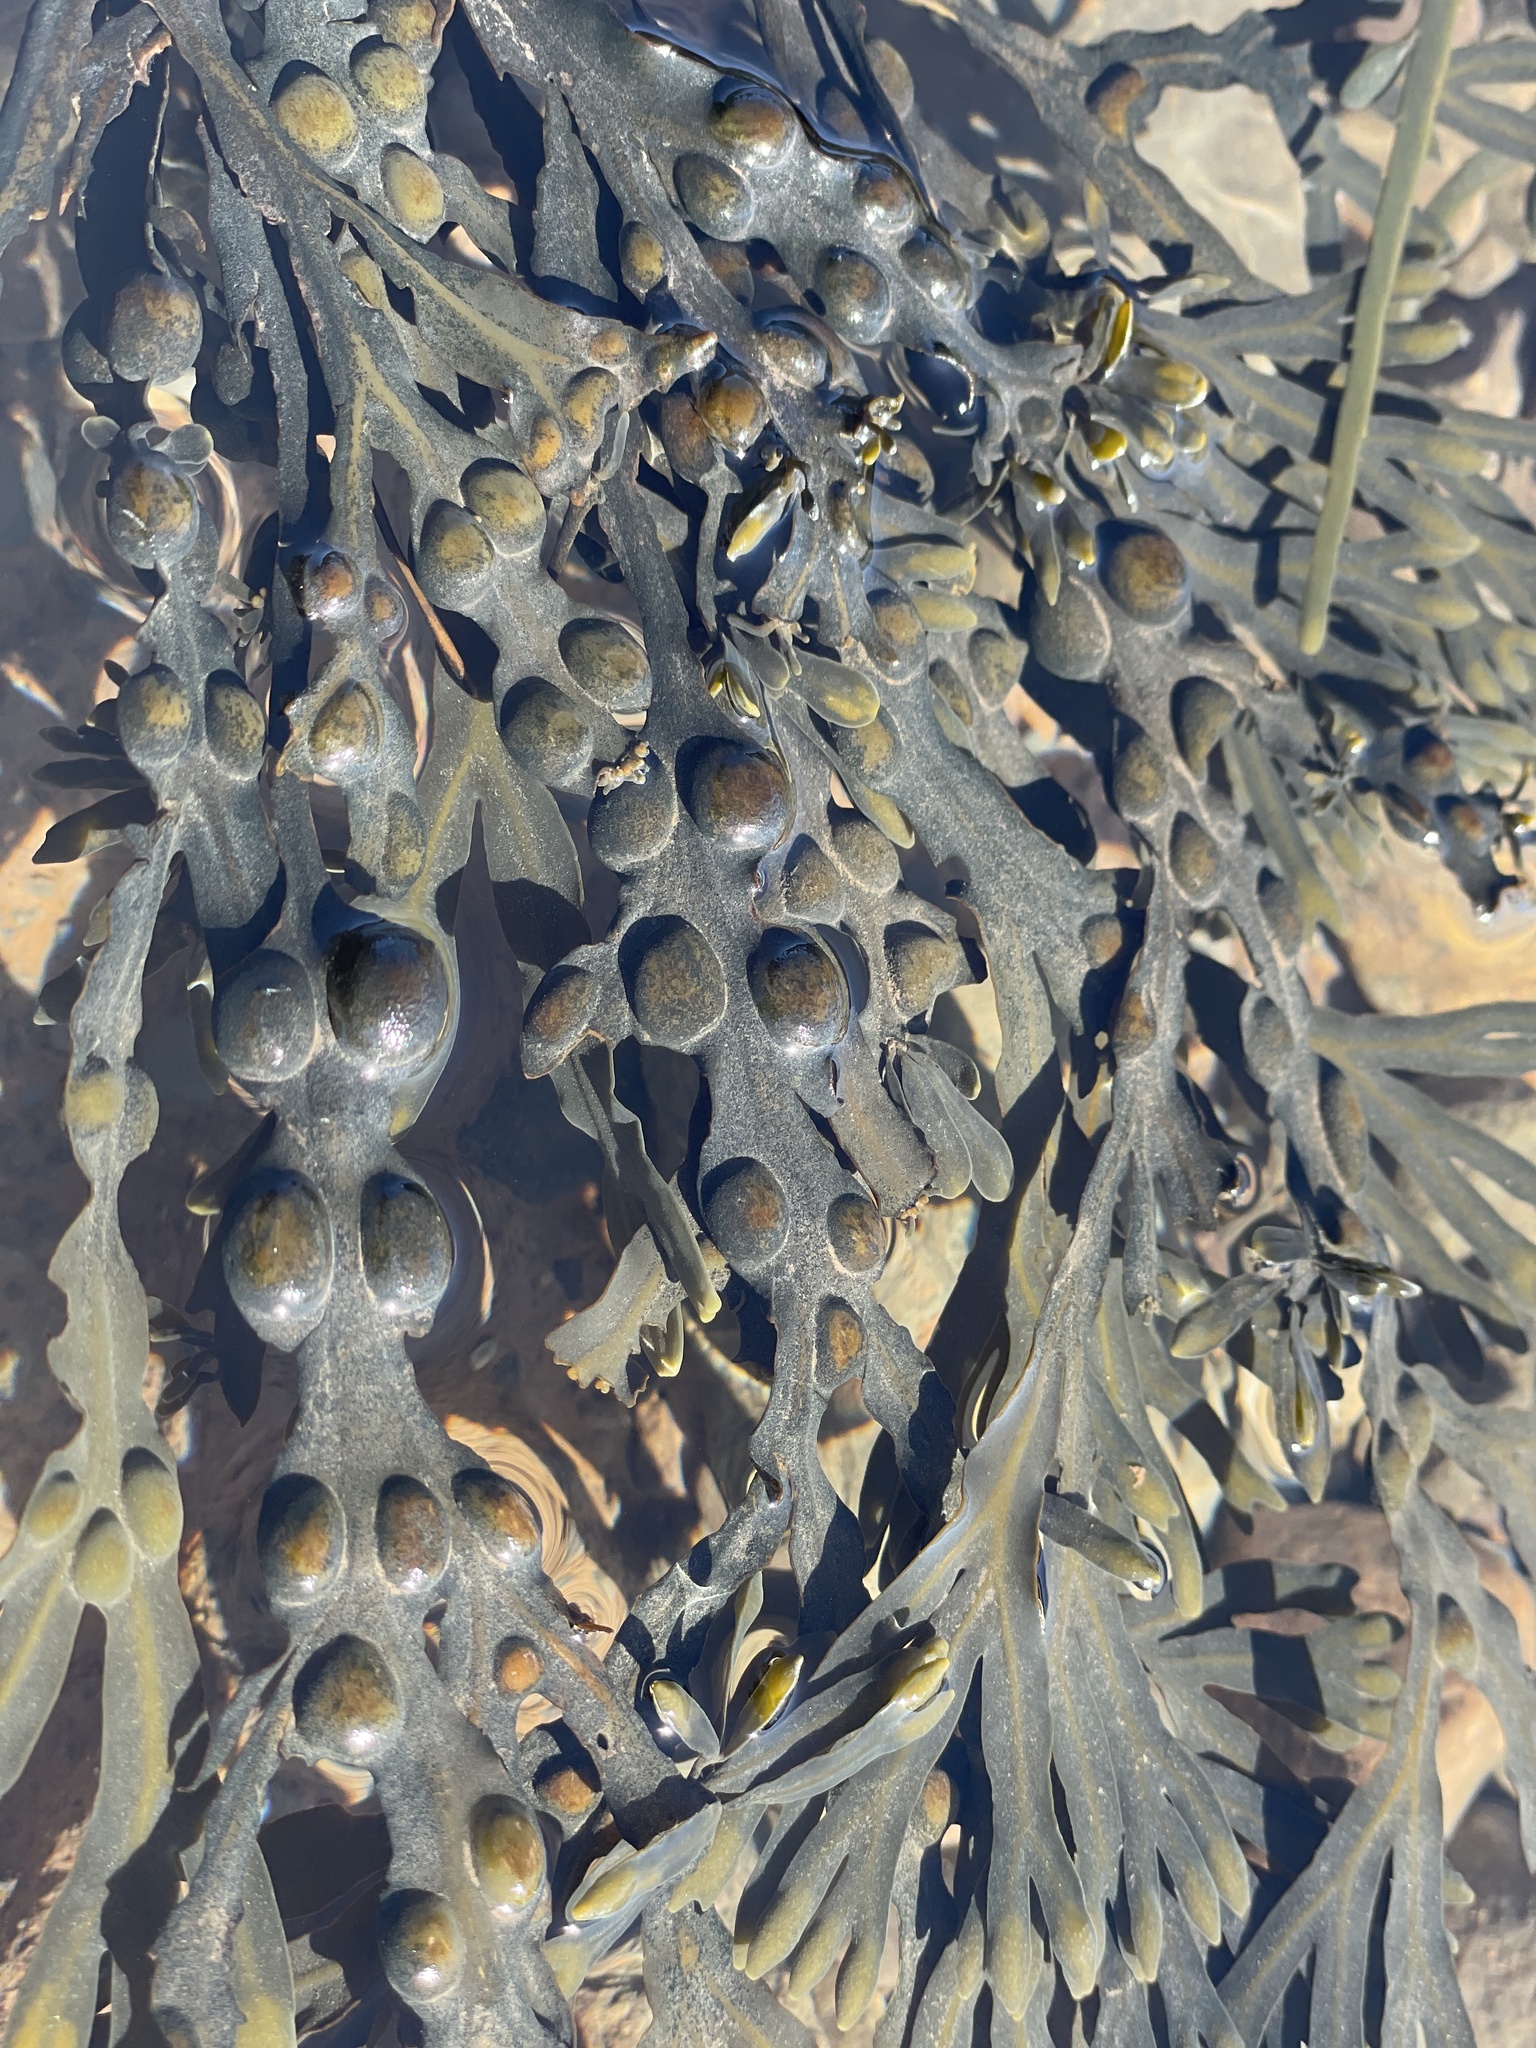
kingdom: Chromista
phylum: Ochrophyta
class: Phaeophyceae
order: Fucales
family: Fucaceae
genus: Fucus
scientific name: Fucus vesiculosus
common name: Bladder wrack
